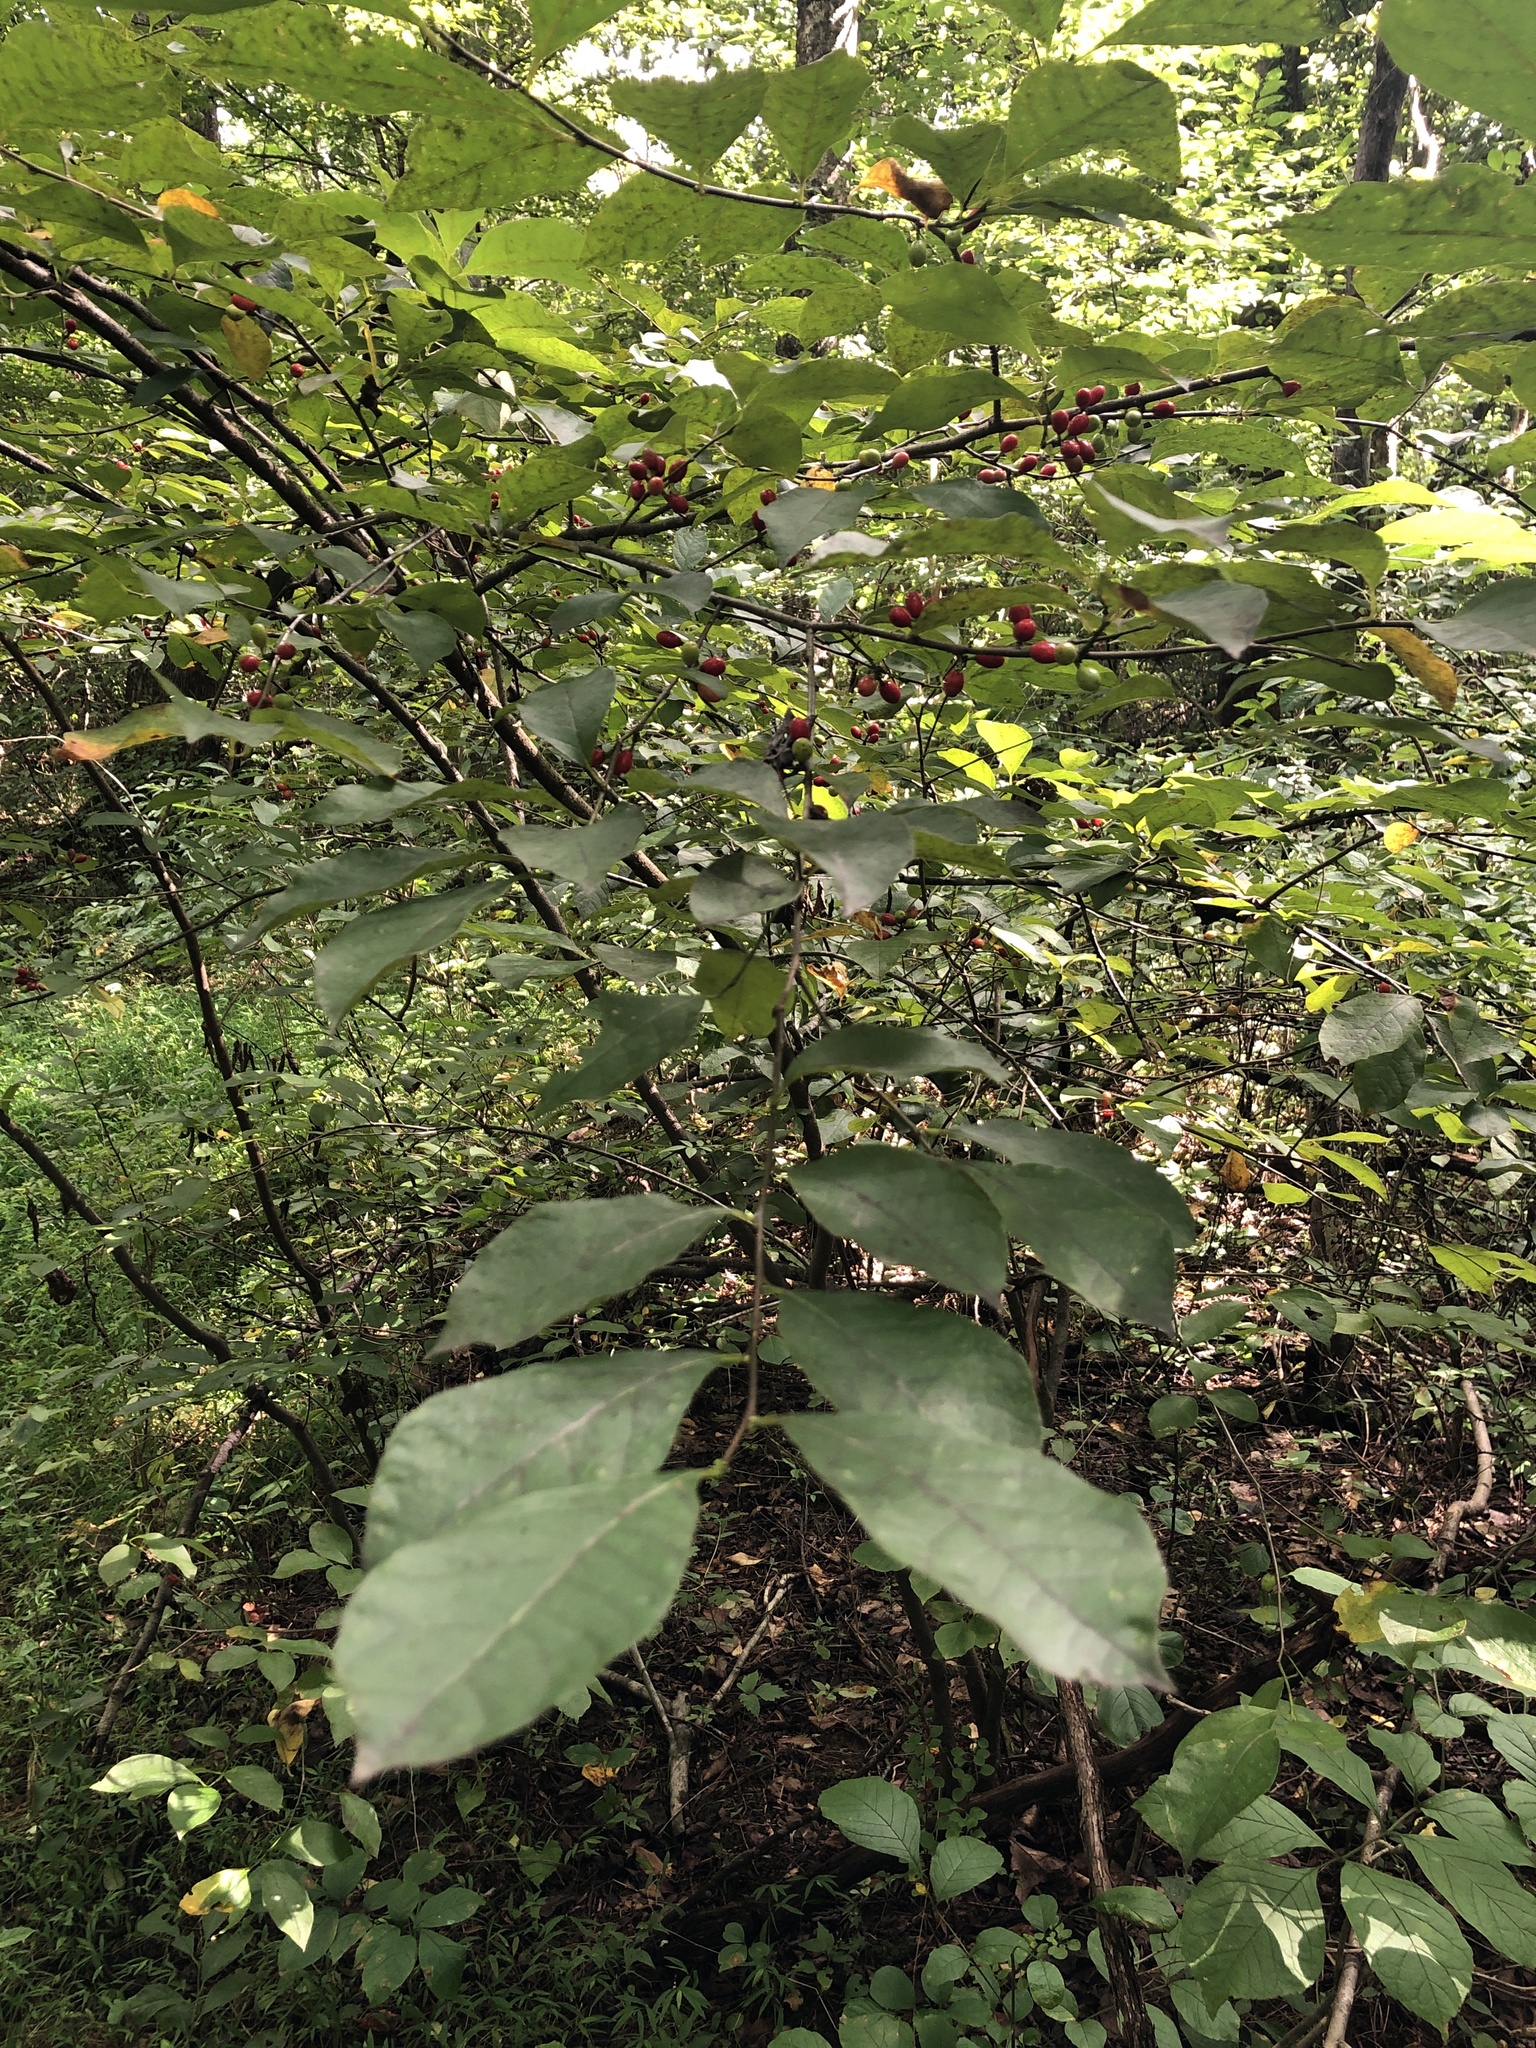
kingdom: Plantae
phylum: Tracheophyta
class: Magnoliopsida
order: Laurales
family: Lauraceae
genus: Lindera
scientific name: Lindera benzoin
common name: Spicebush
